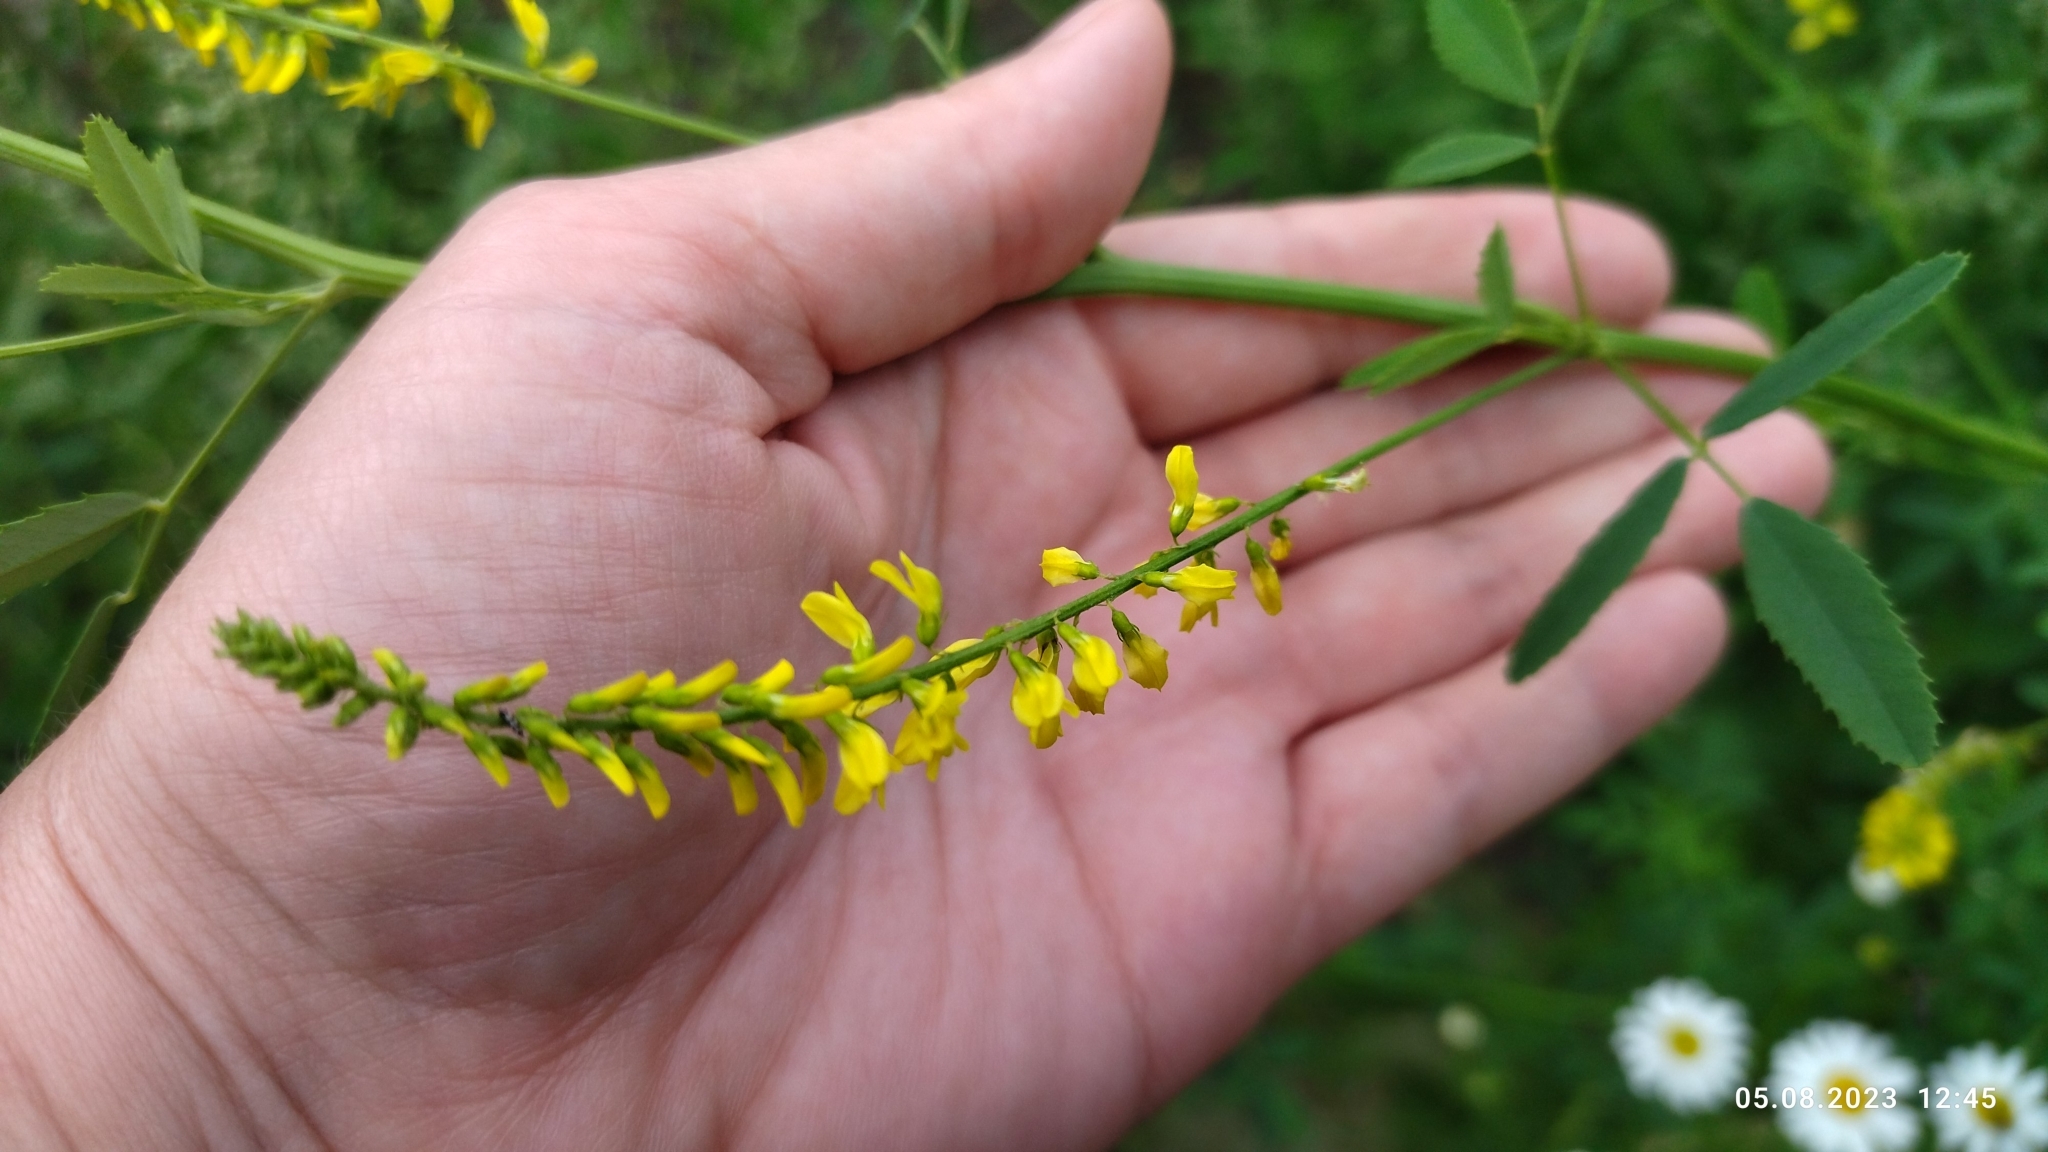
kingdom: Plantae
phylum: Tracheophyta
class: Magnoliopsida
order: Fabales
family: Fabaceae
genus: Melilotus
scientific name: Melilotus officinalis
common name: Sweetclover
